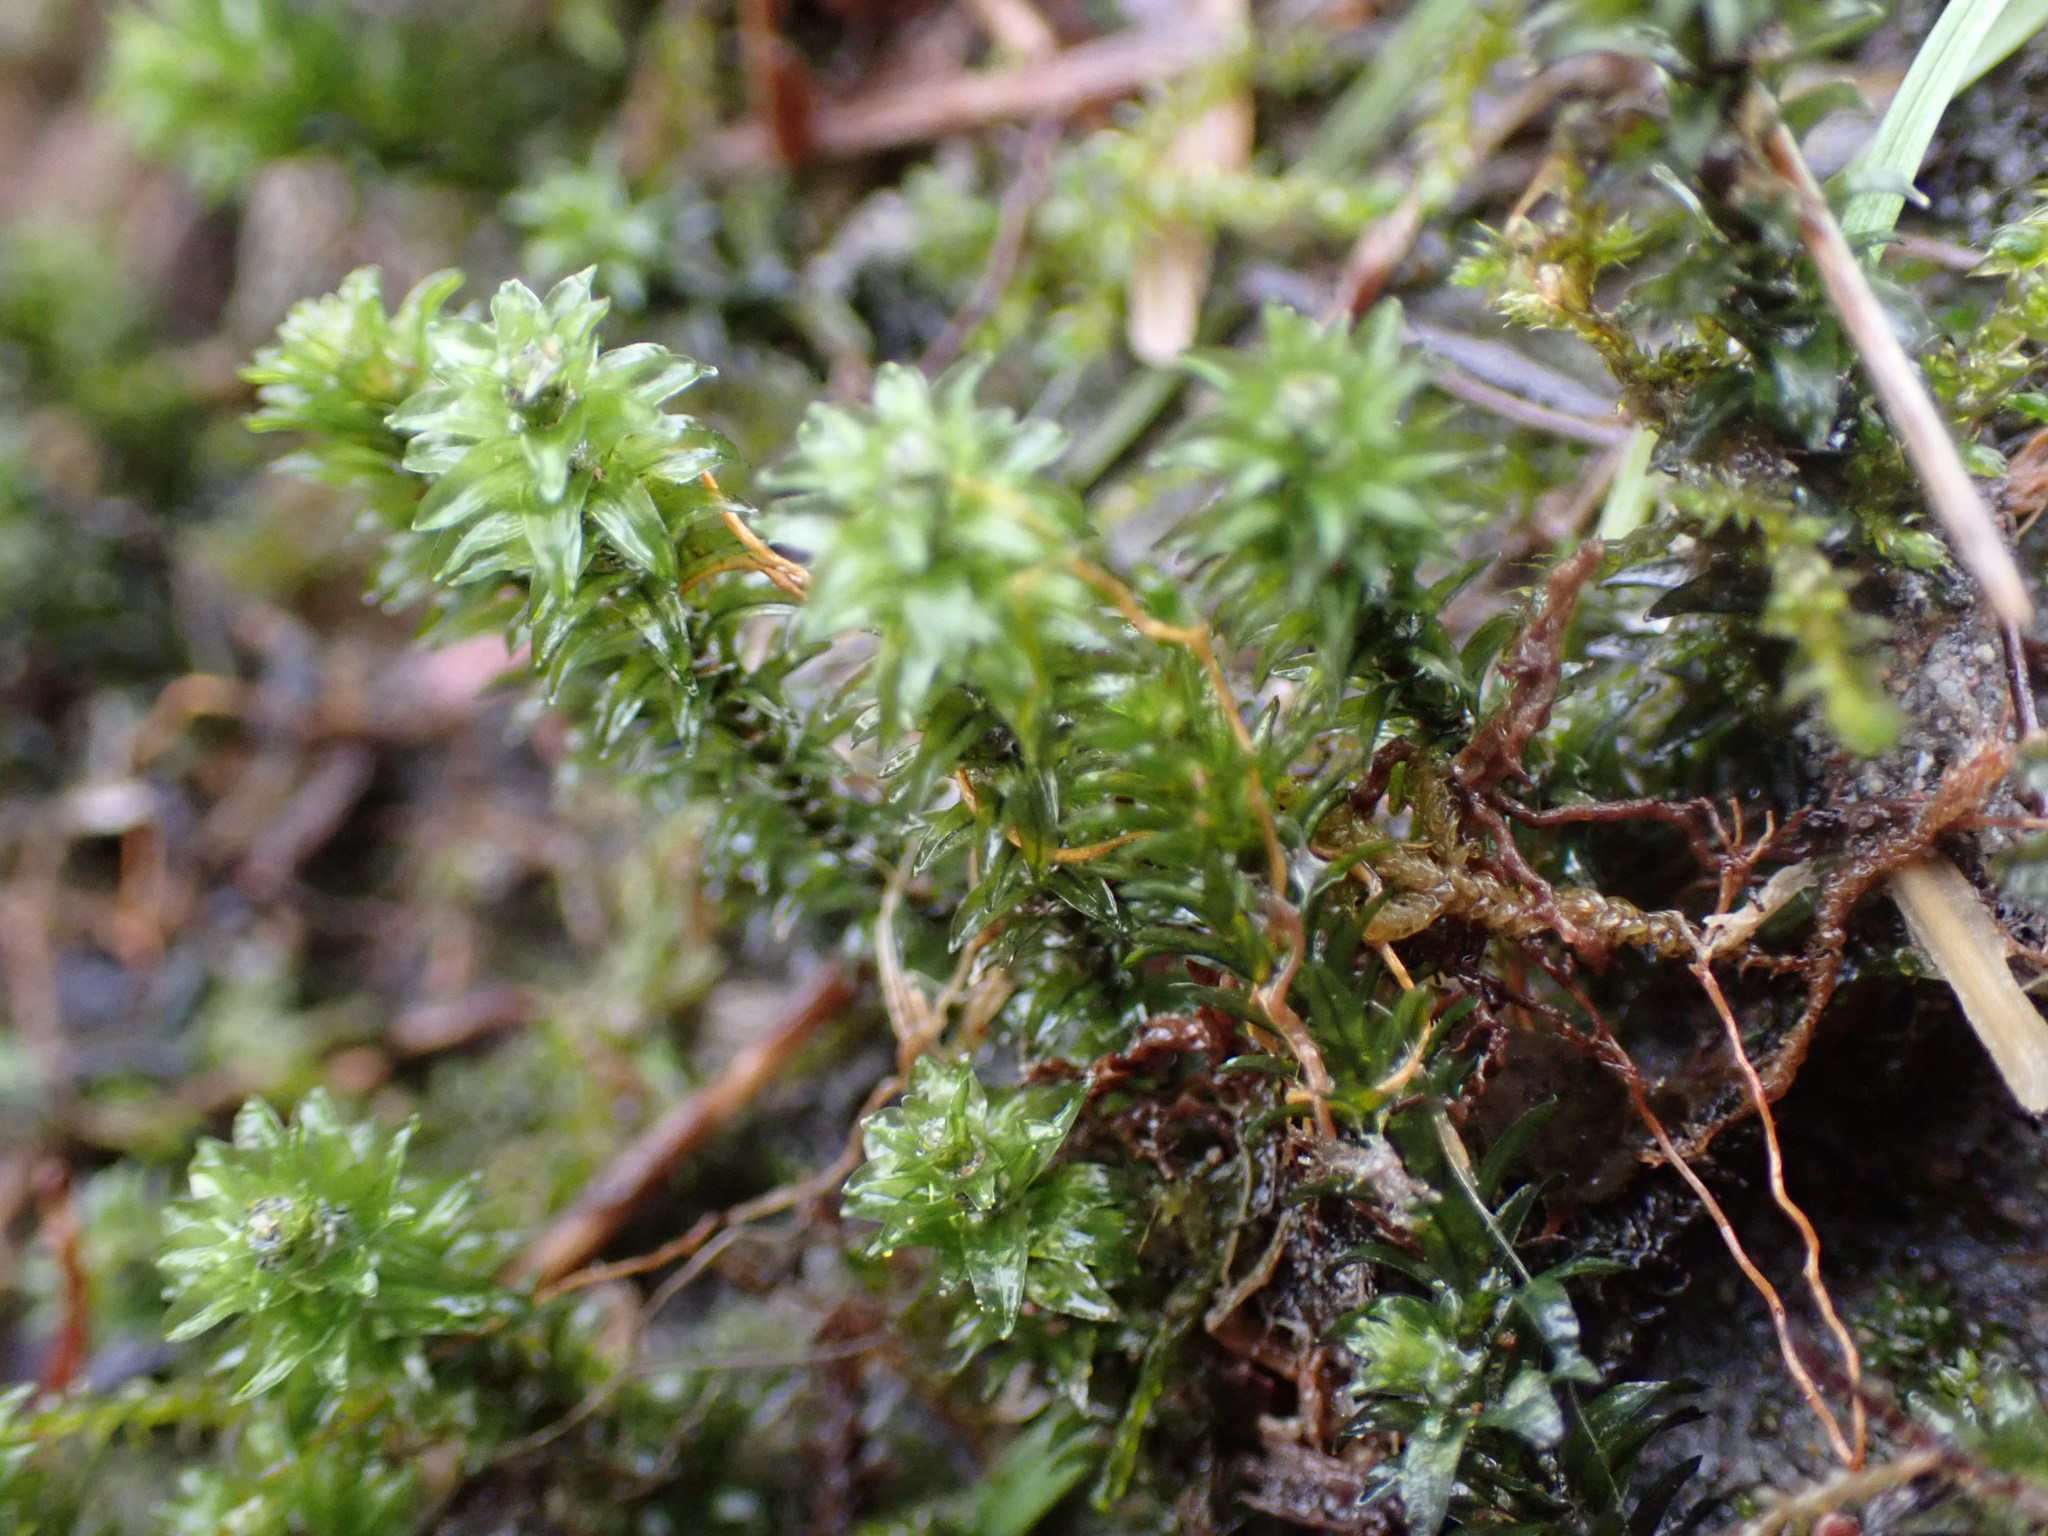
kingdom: Plantae
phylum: Bryophyta
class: Bryopsida
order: Scouleriales
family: Scouleriaceae
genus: Scouleria
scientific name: Scouleria aquatica
